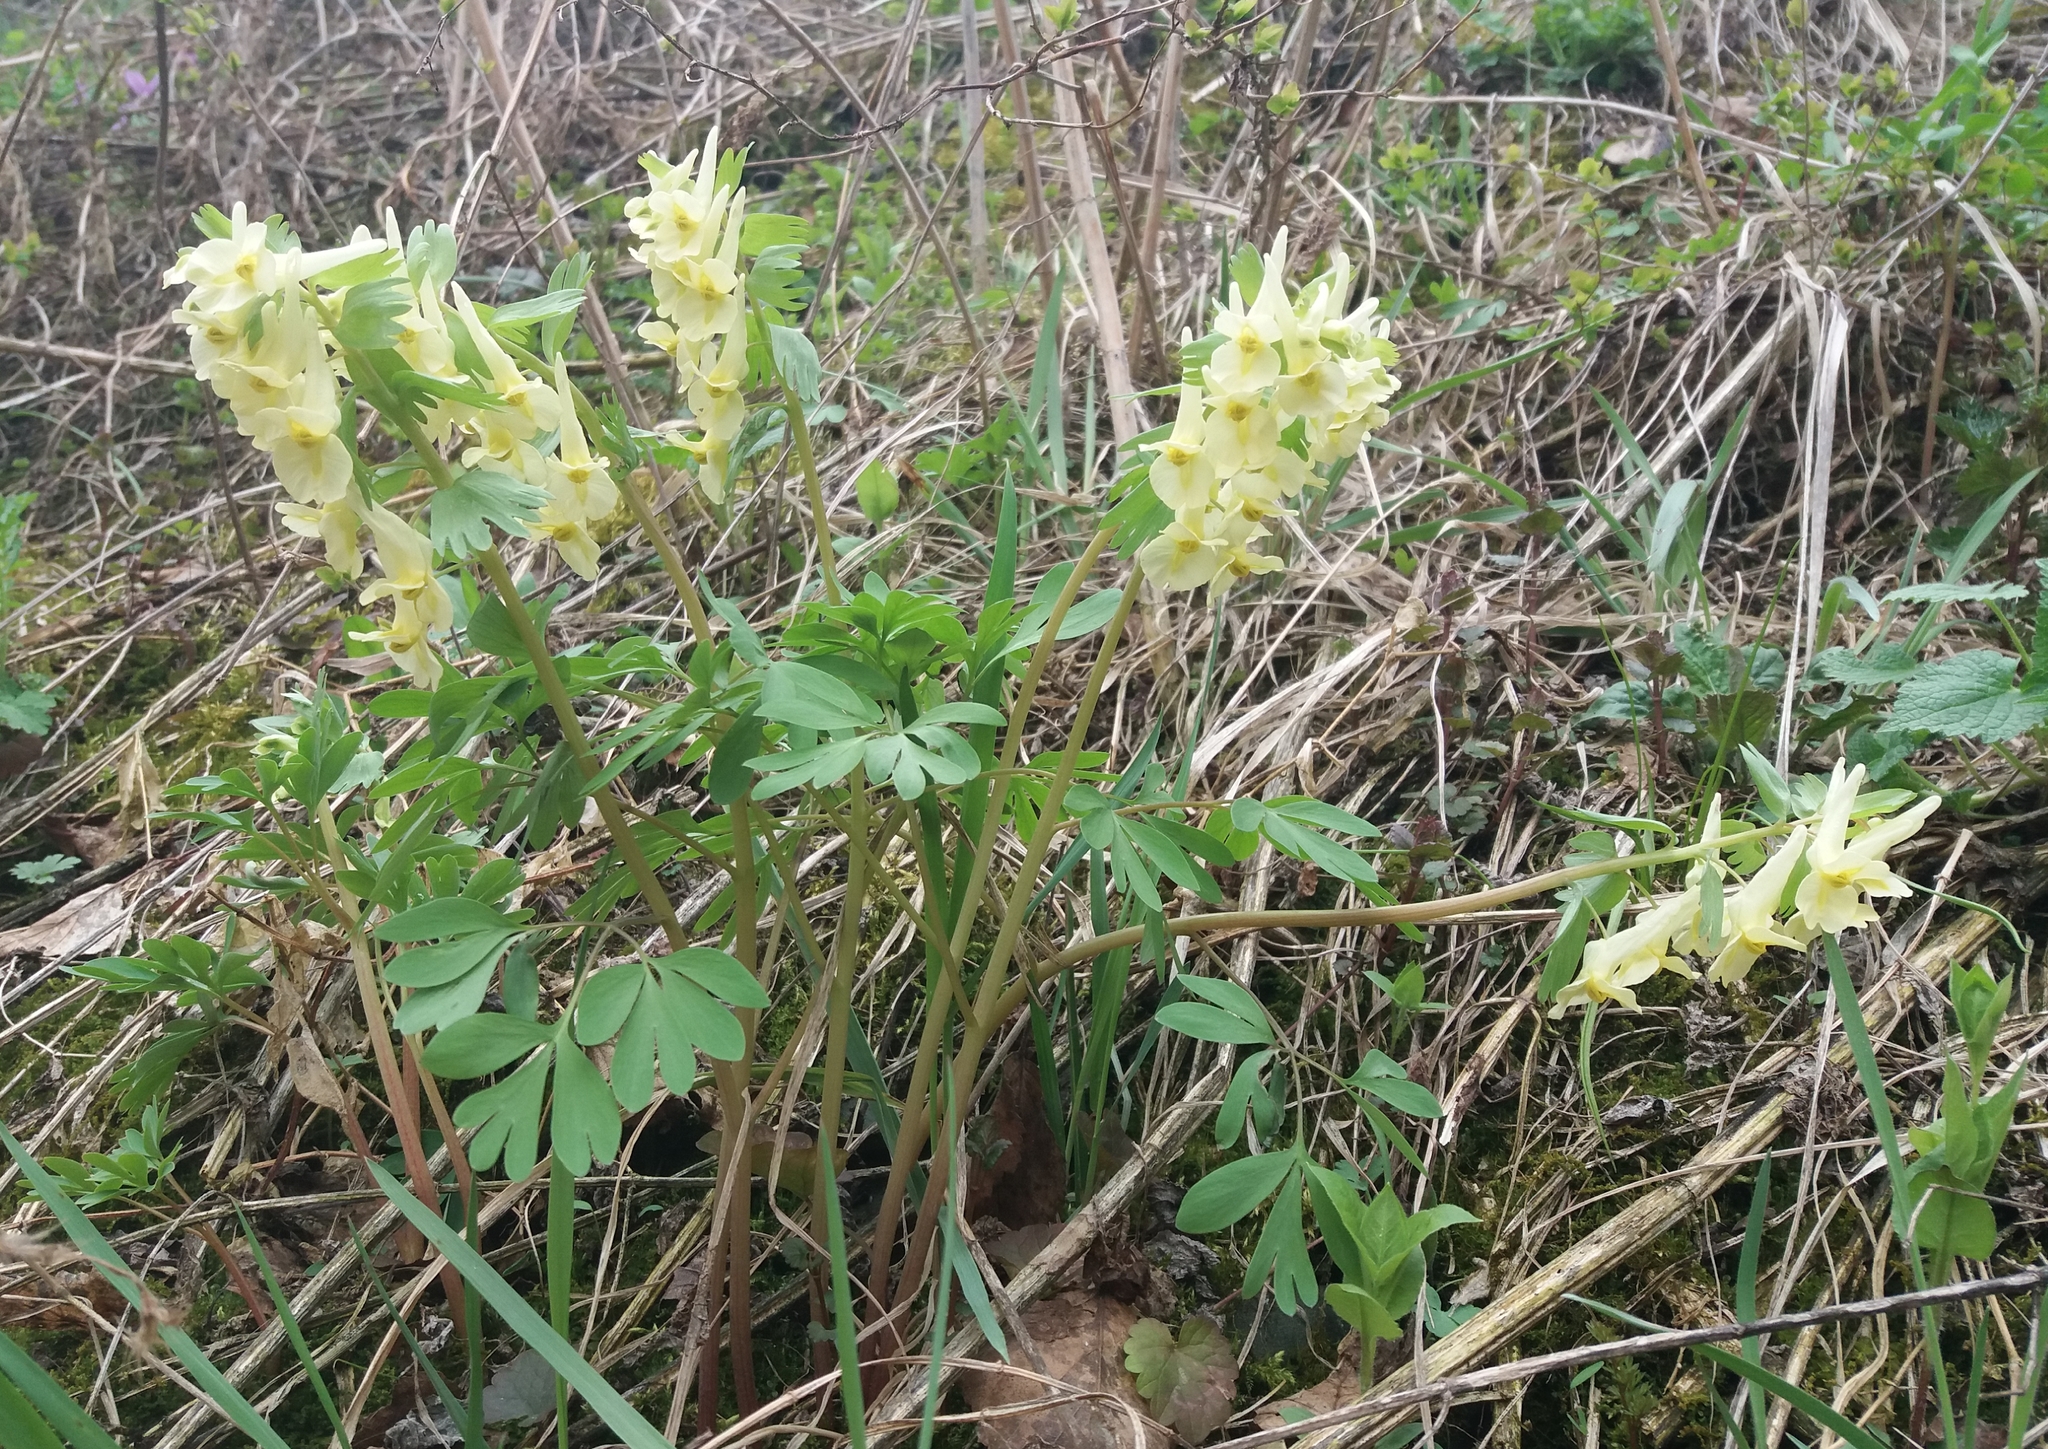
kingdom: Plantae
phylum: Tracheophyta
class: Magnoliopsida
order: Ranunculales
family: Papaveraceae
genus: Corydalis
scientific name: Corydalis bracteata
